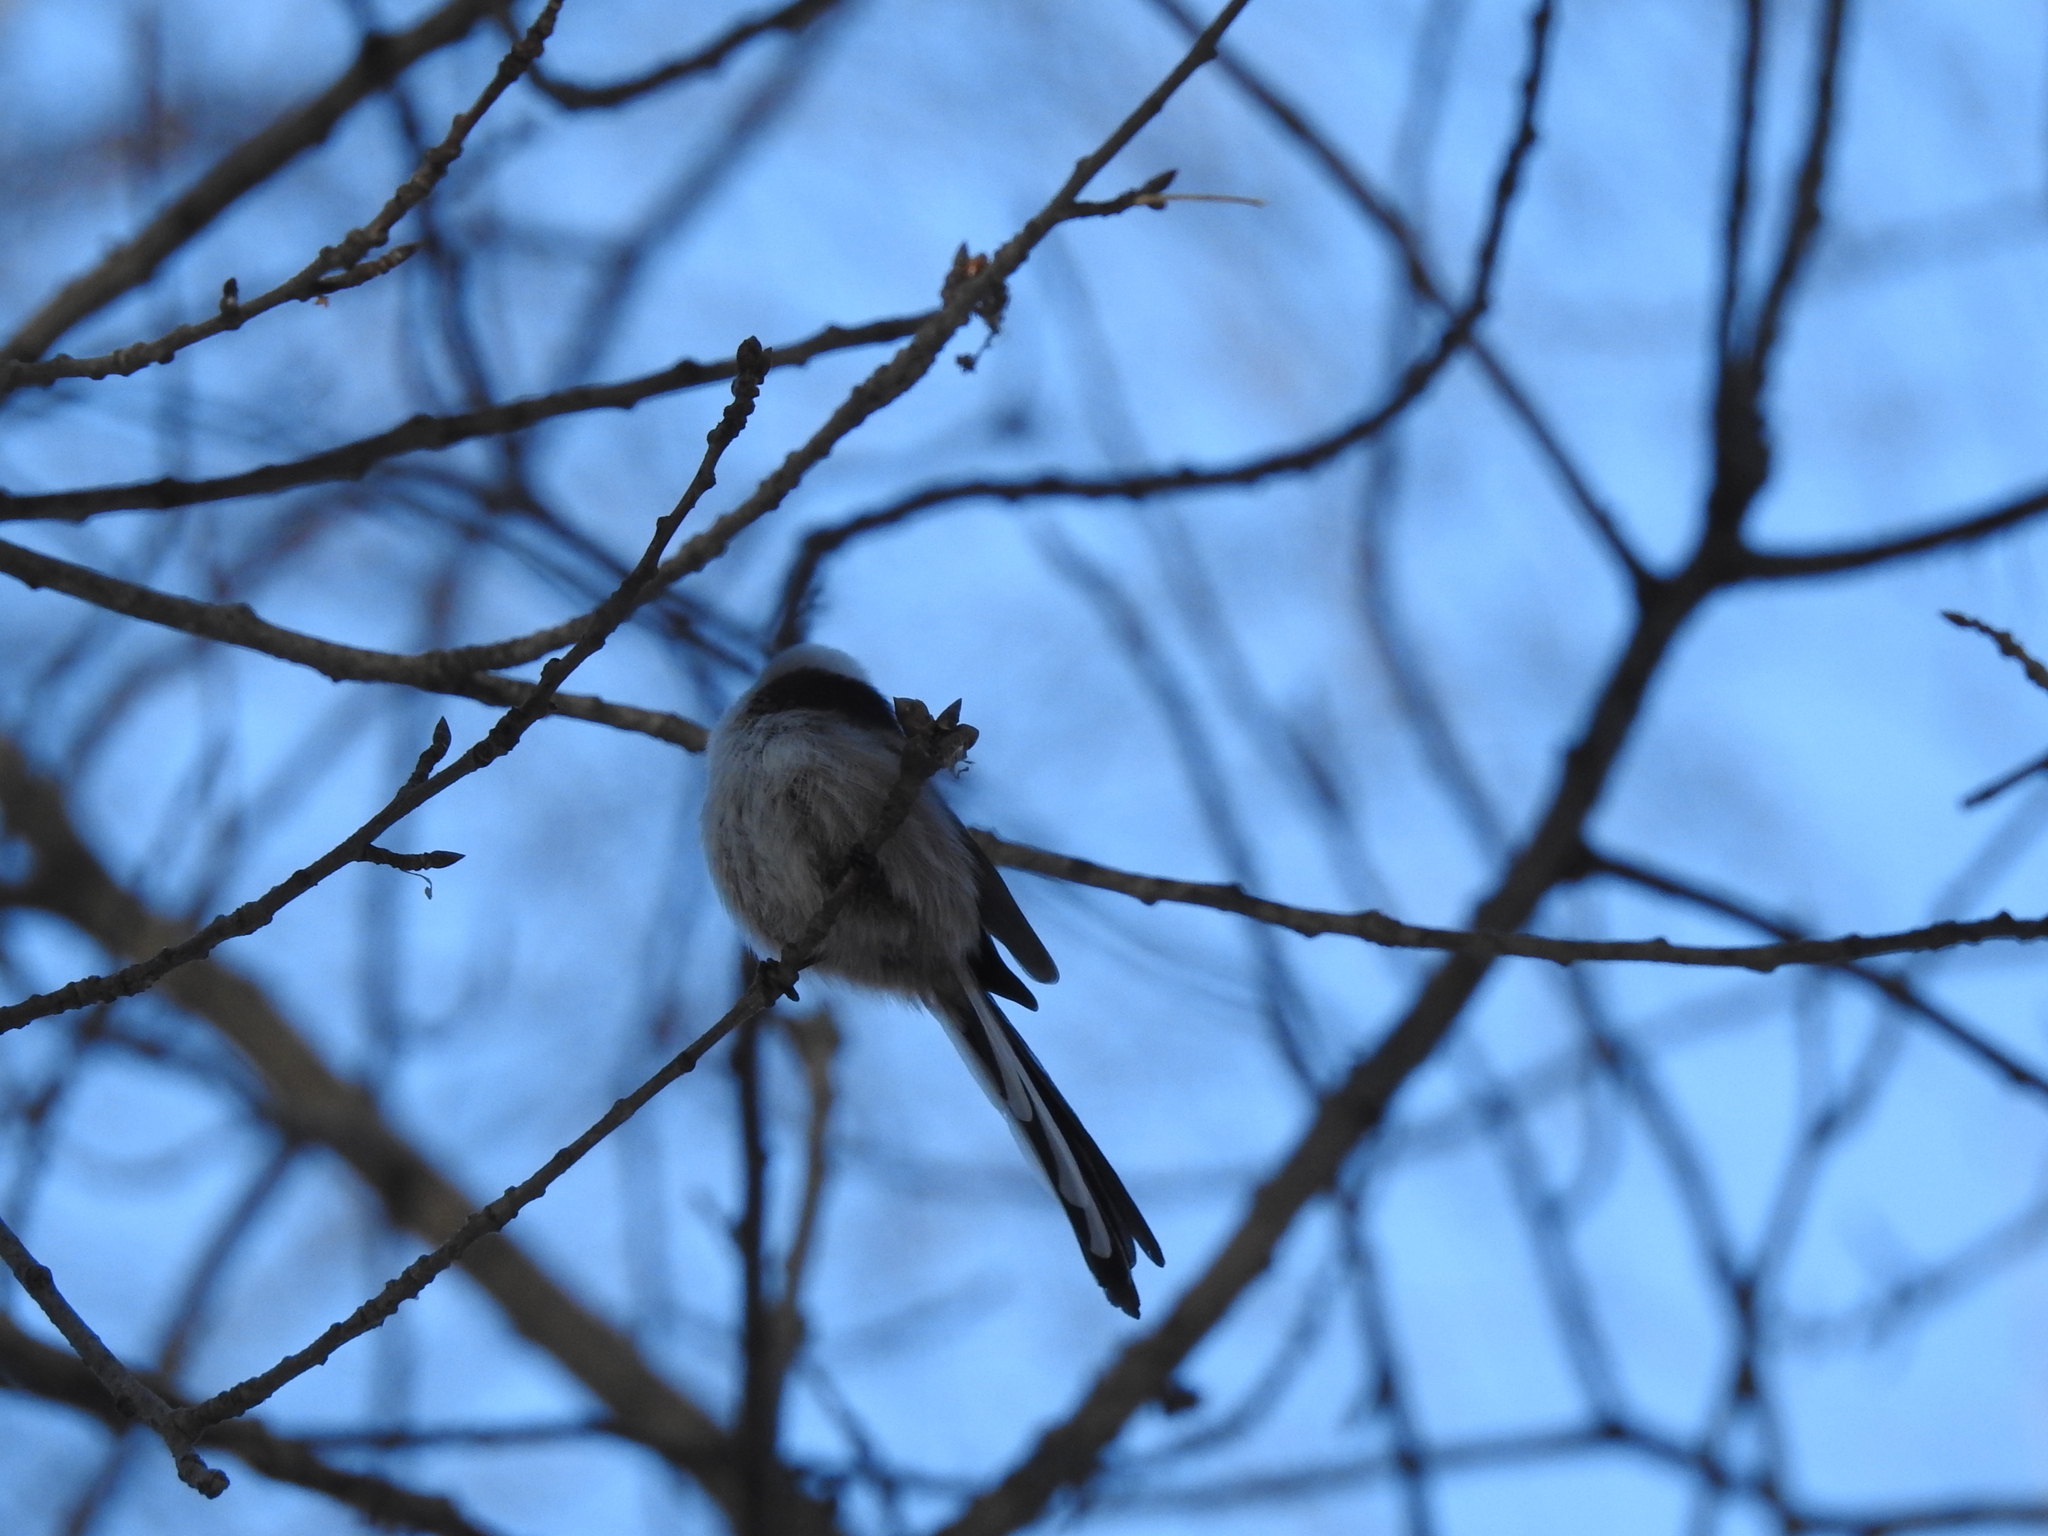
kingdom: Animalia
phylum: Chordata
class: Aves
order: Passeriformes
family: Aegithalidae
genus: Aegithalos
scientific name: Aegithalos caudatus
